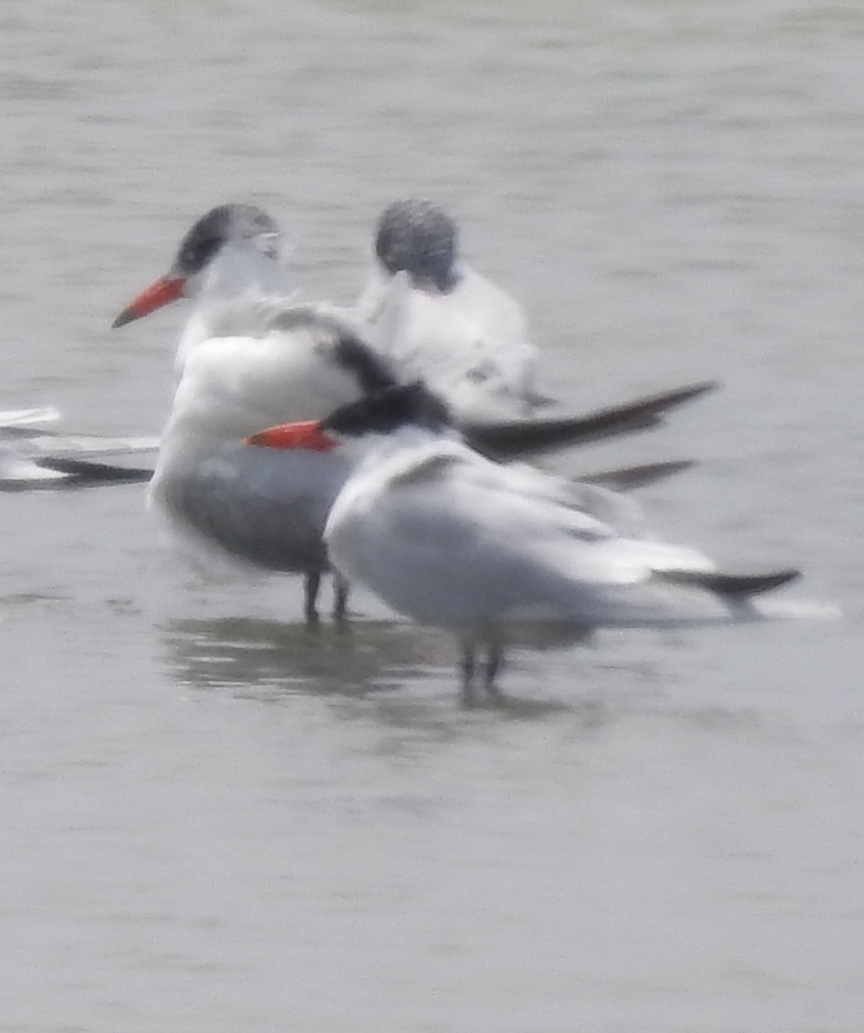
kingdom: Animalia
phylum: Chordata
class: Aves
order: Charadriiformes
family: Laridae
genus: Hydroprogne
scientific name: Hydroprogne caspia
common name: Caspian tern
